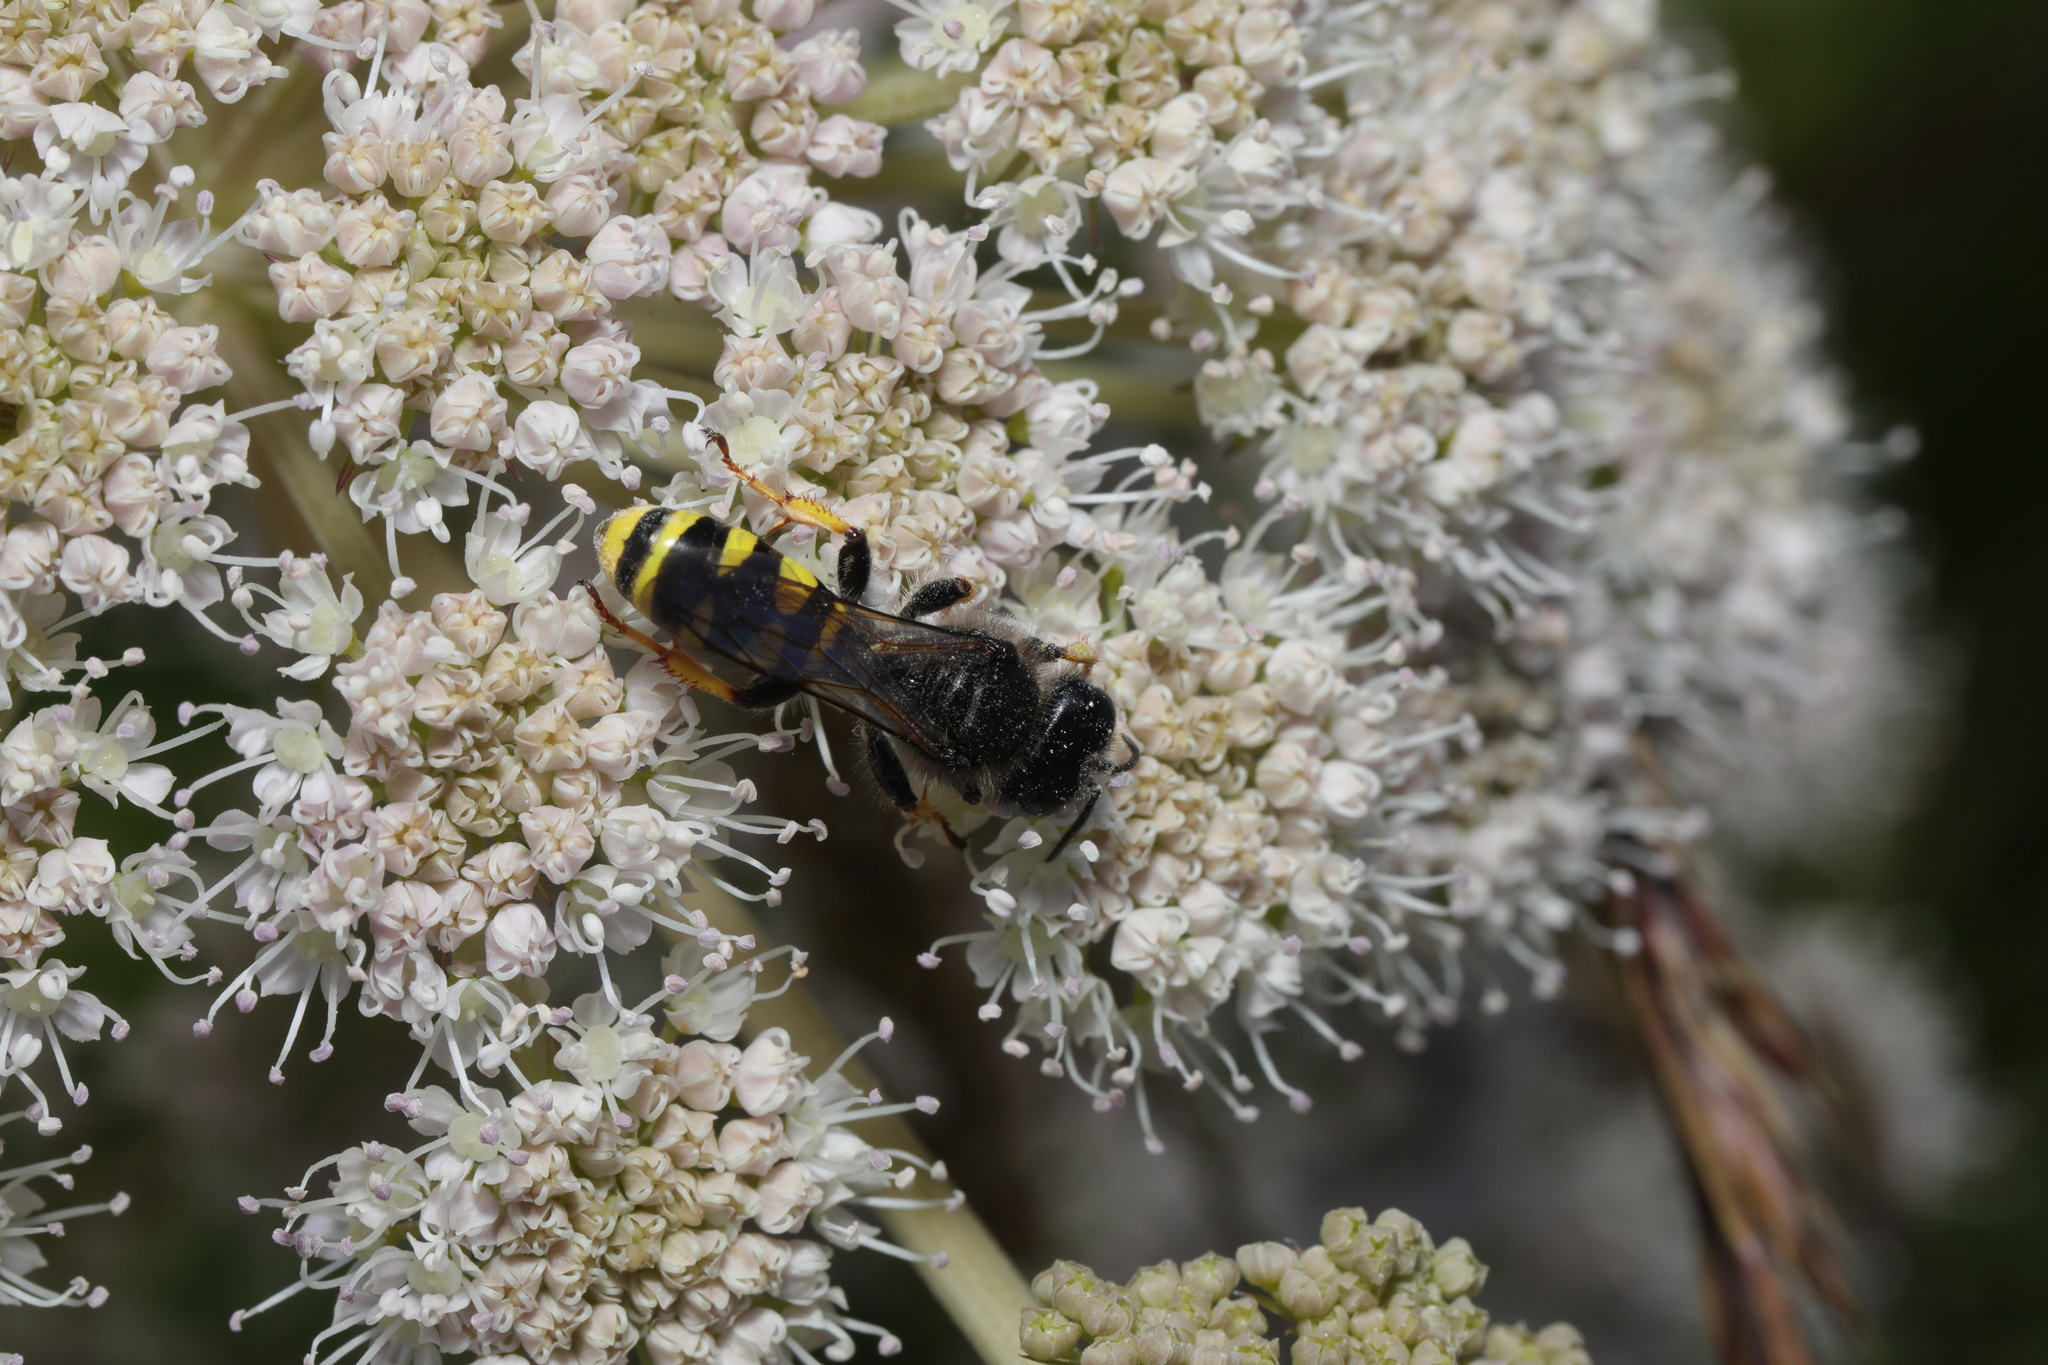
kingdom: Animalia
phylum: Arthropoda
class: Insecta
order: Hymenoptera
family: Crabronidae
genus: Crabro
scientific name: Crabro cribrarius
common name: Slender bodied digger wasp
